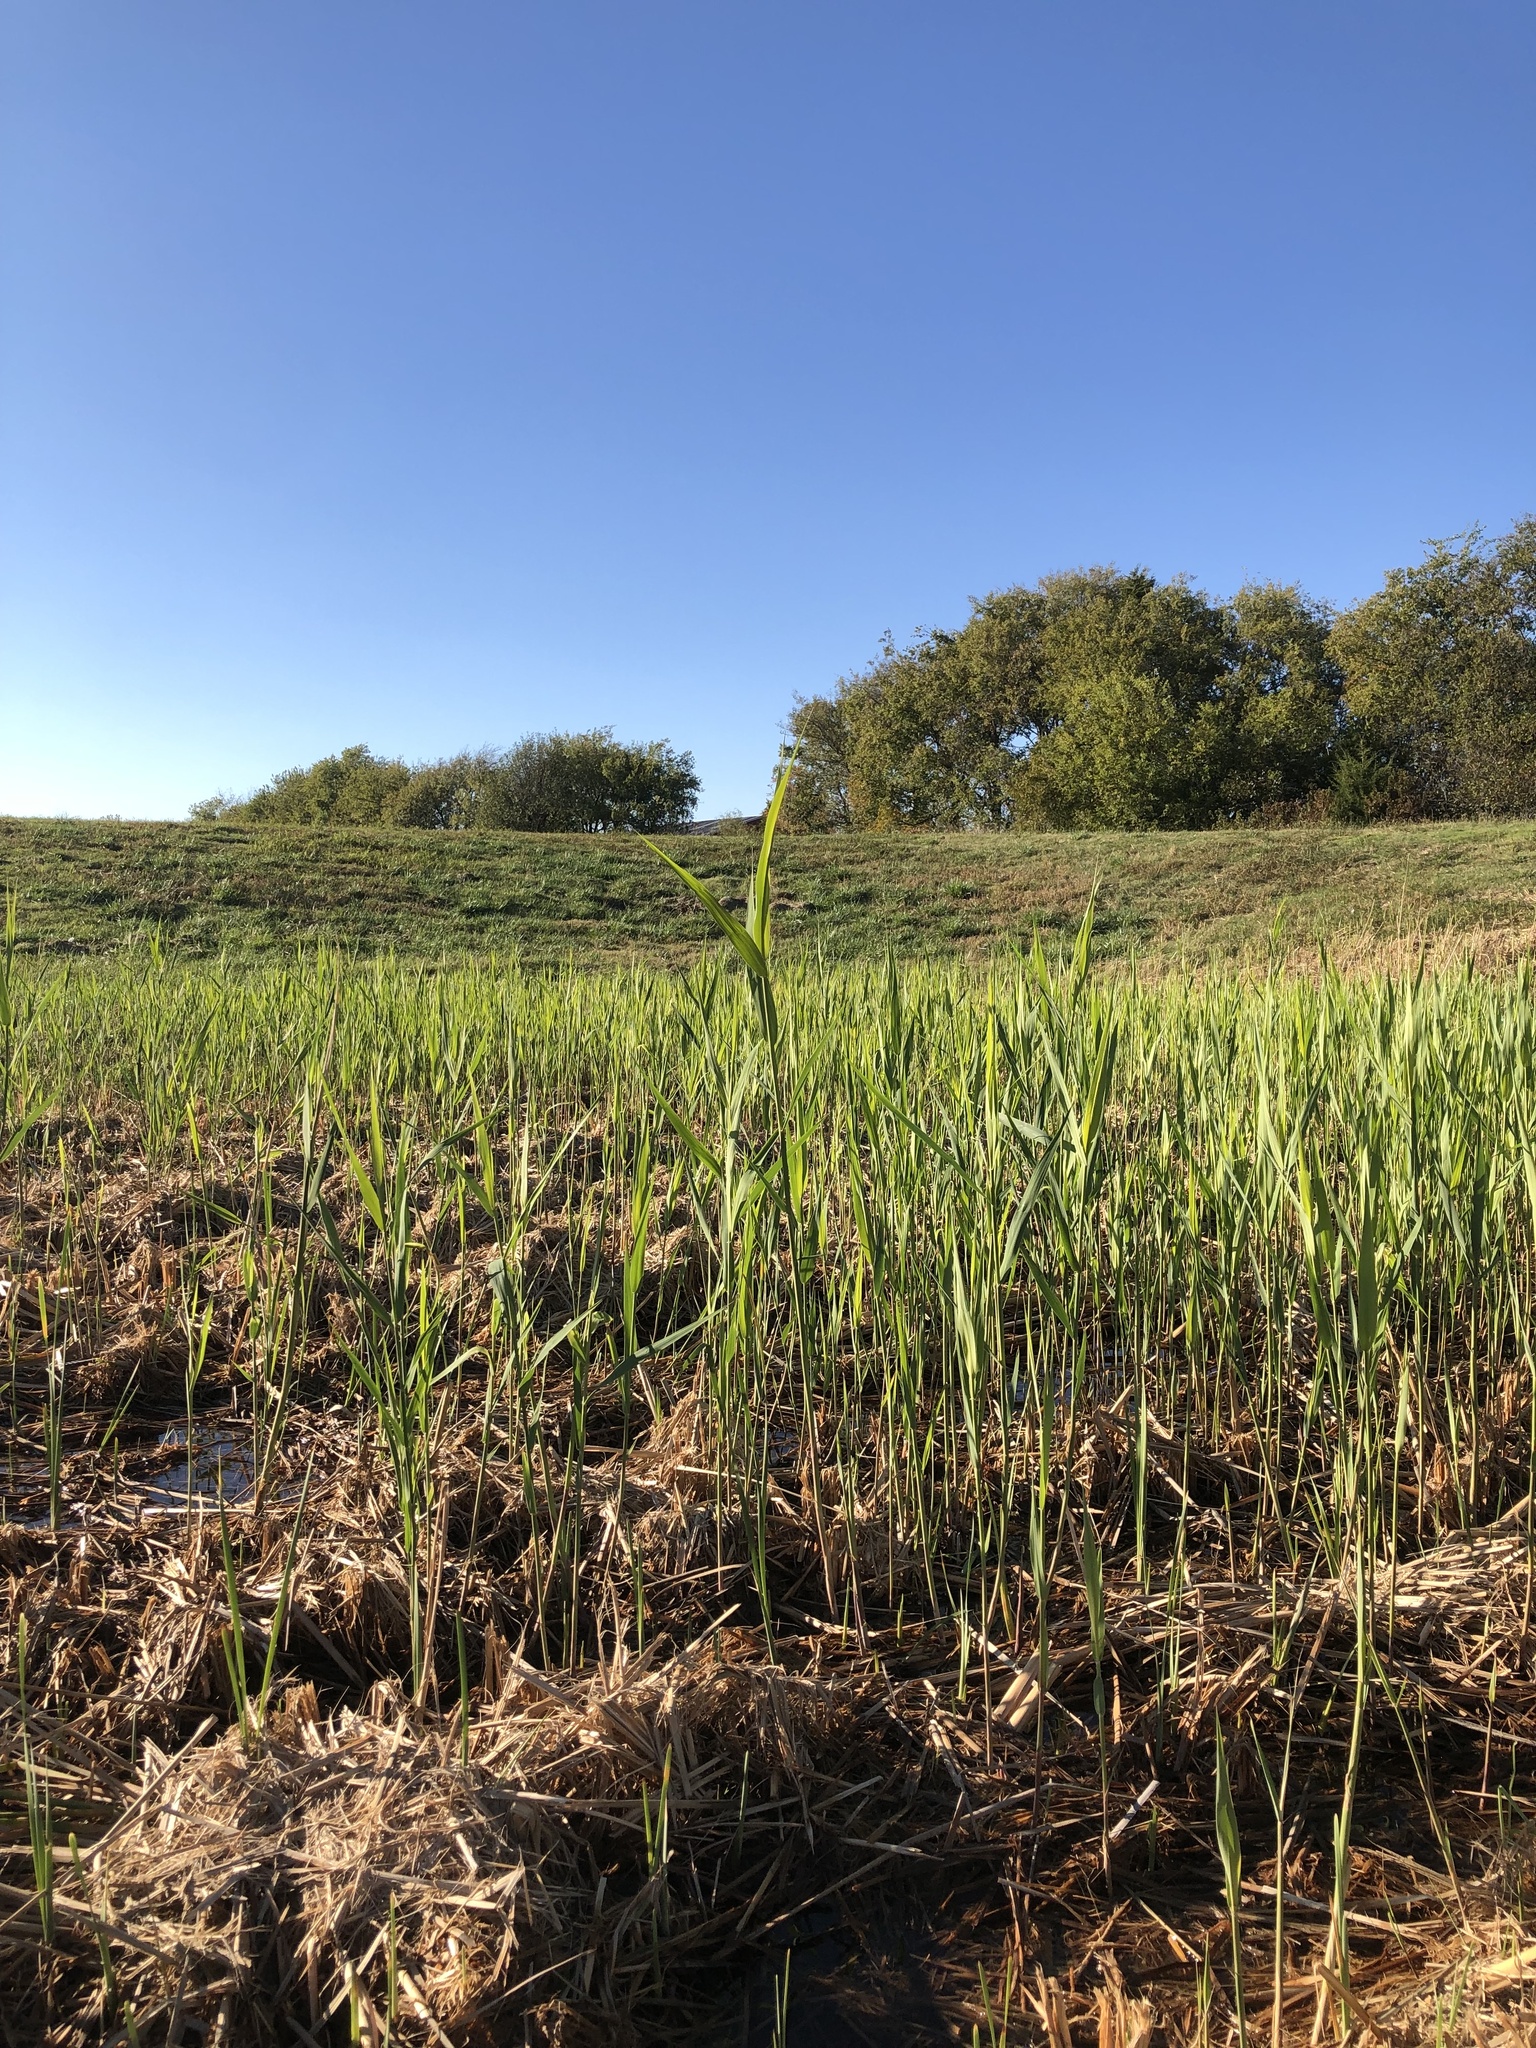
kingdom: Plantae
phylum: Tracheophyta
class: Liliopsida
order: Poales
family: Poaceae
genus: Phragmites
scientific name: Phragmites australis
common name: Common reed
